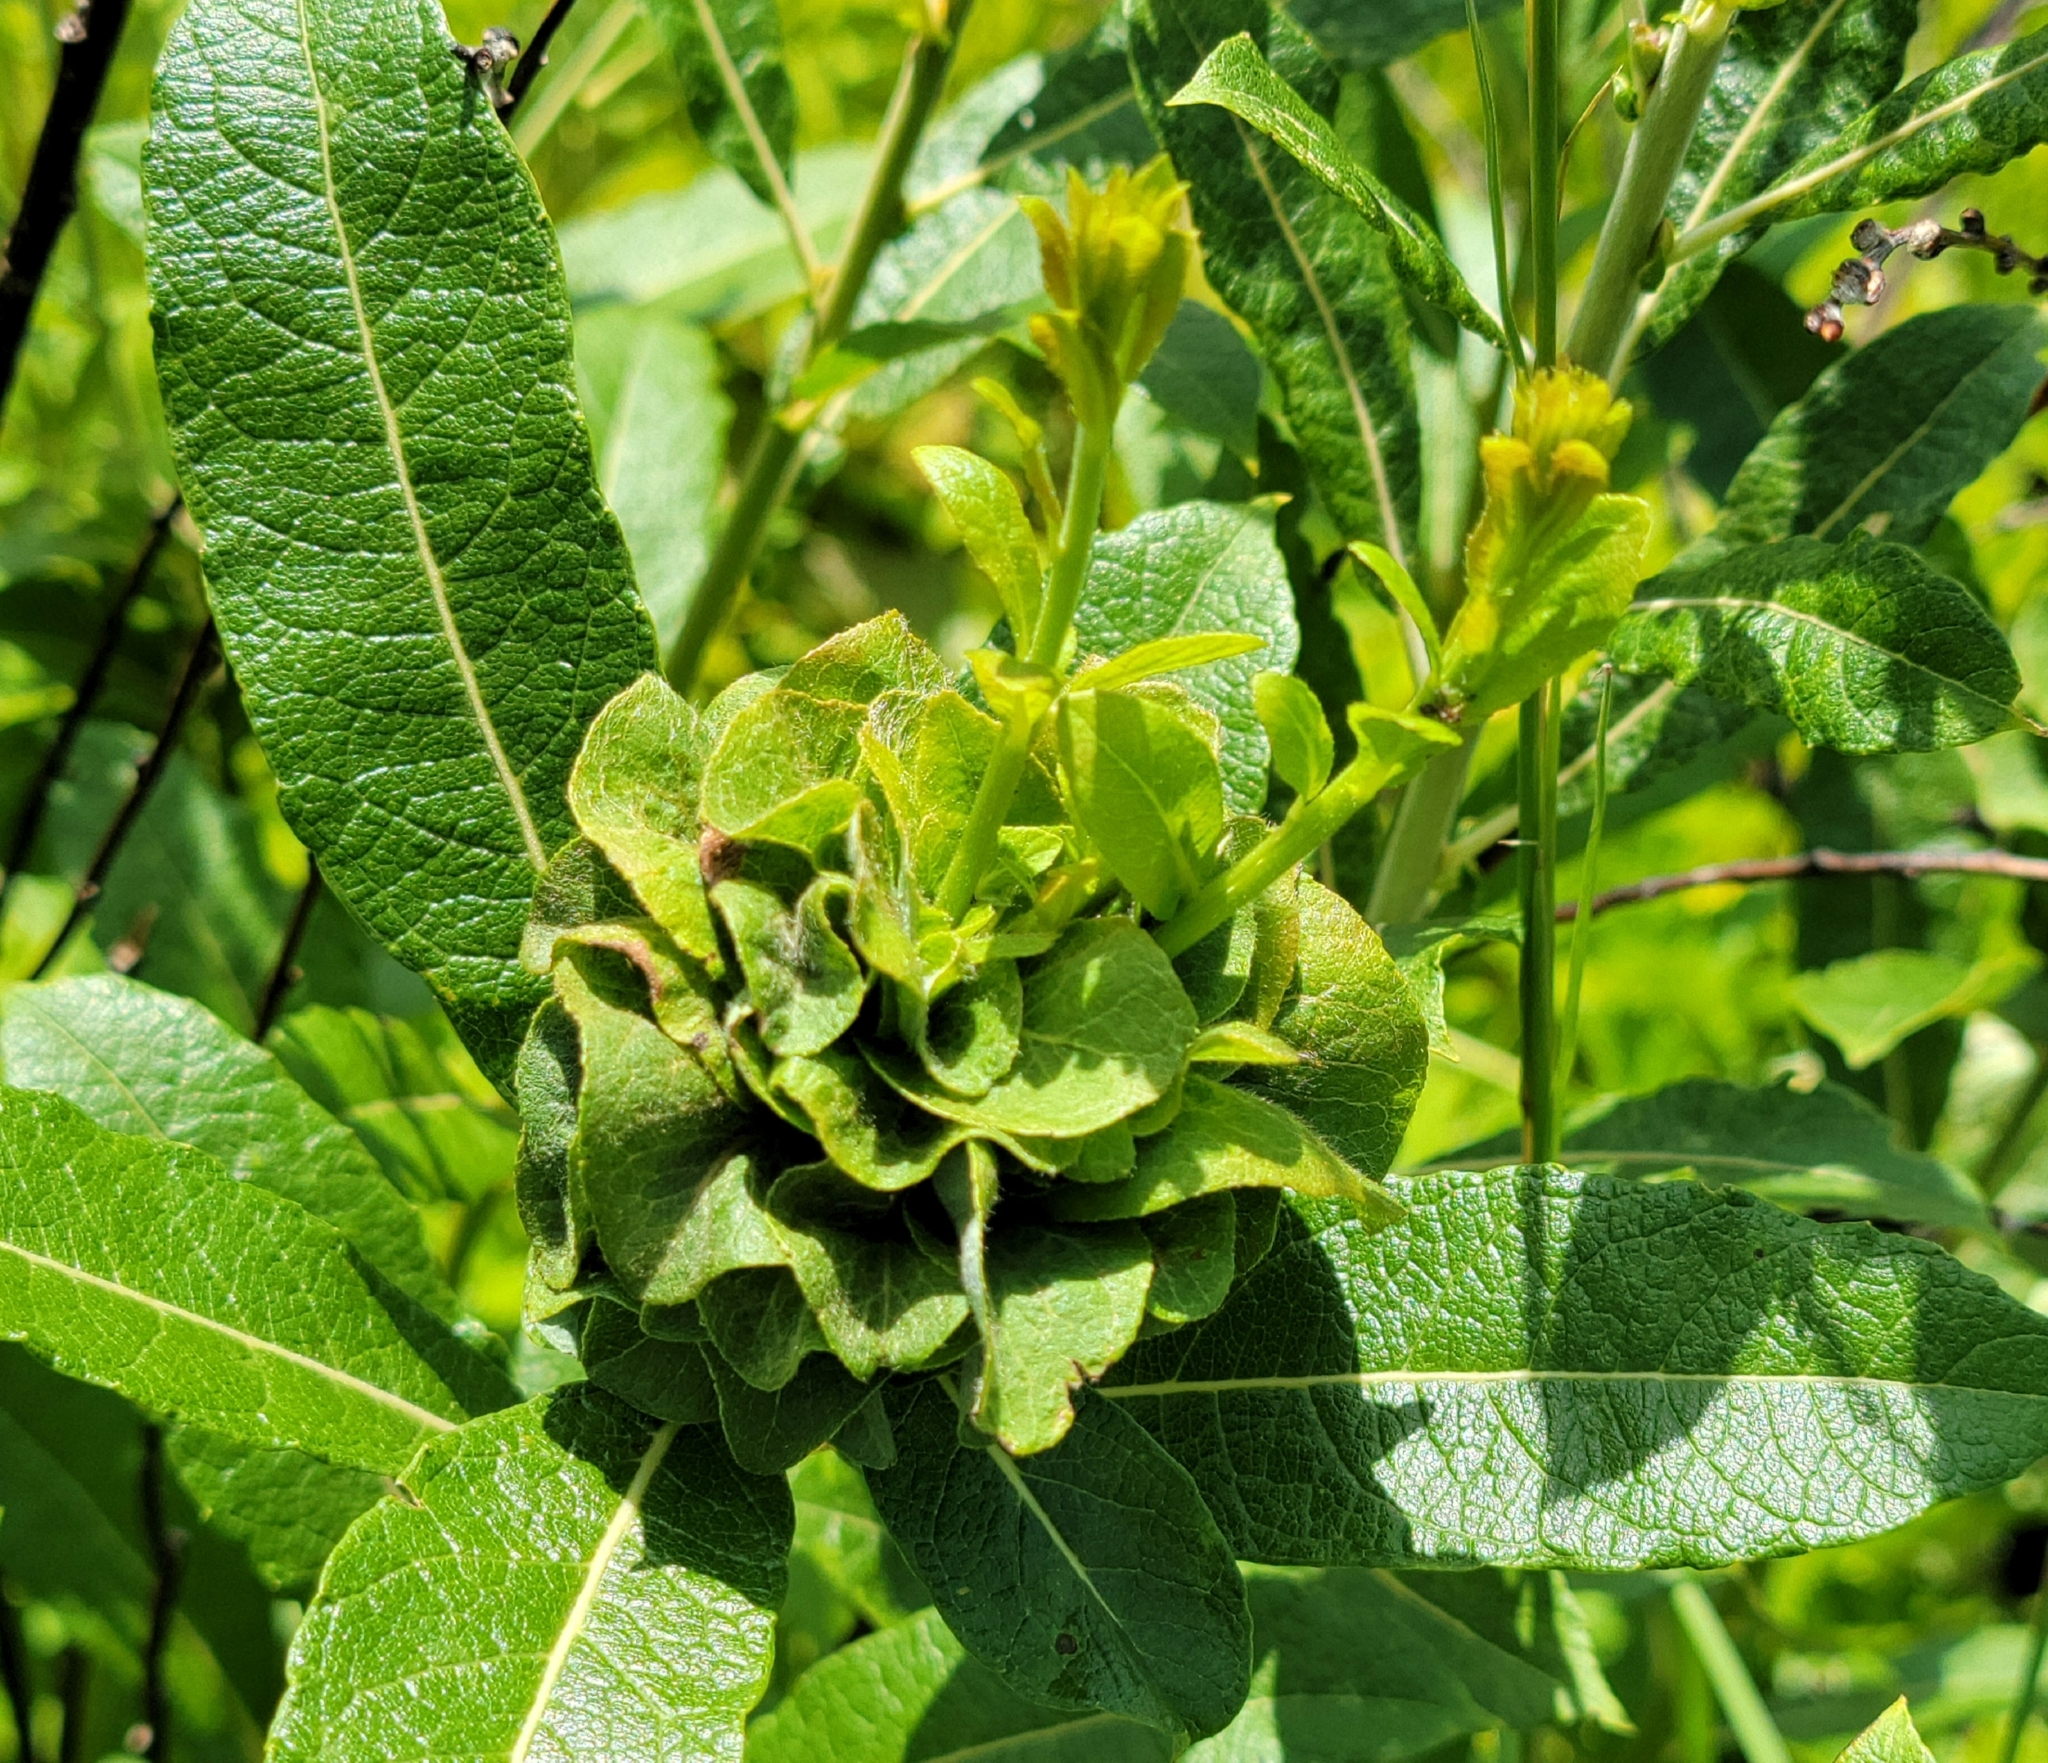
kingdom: Animalia
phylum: Arthropoda
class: Insecta
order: Diptera
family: Cecidomyiidae
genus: Rabdophaga
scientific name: Rabdophaga salicisbrassicoides
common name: Willow cabbagegall midge
